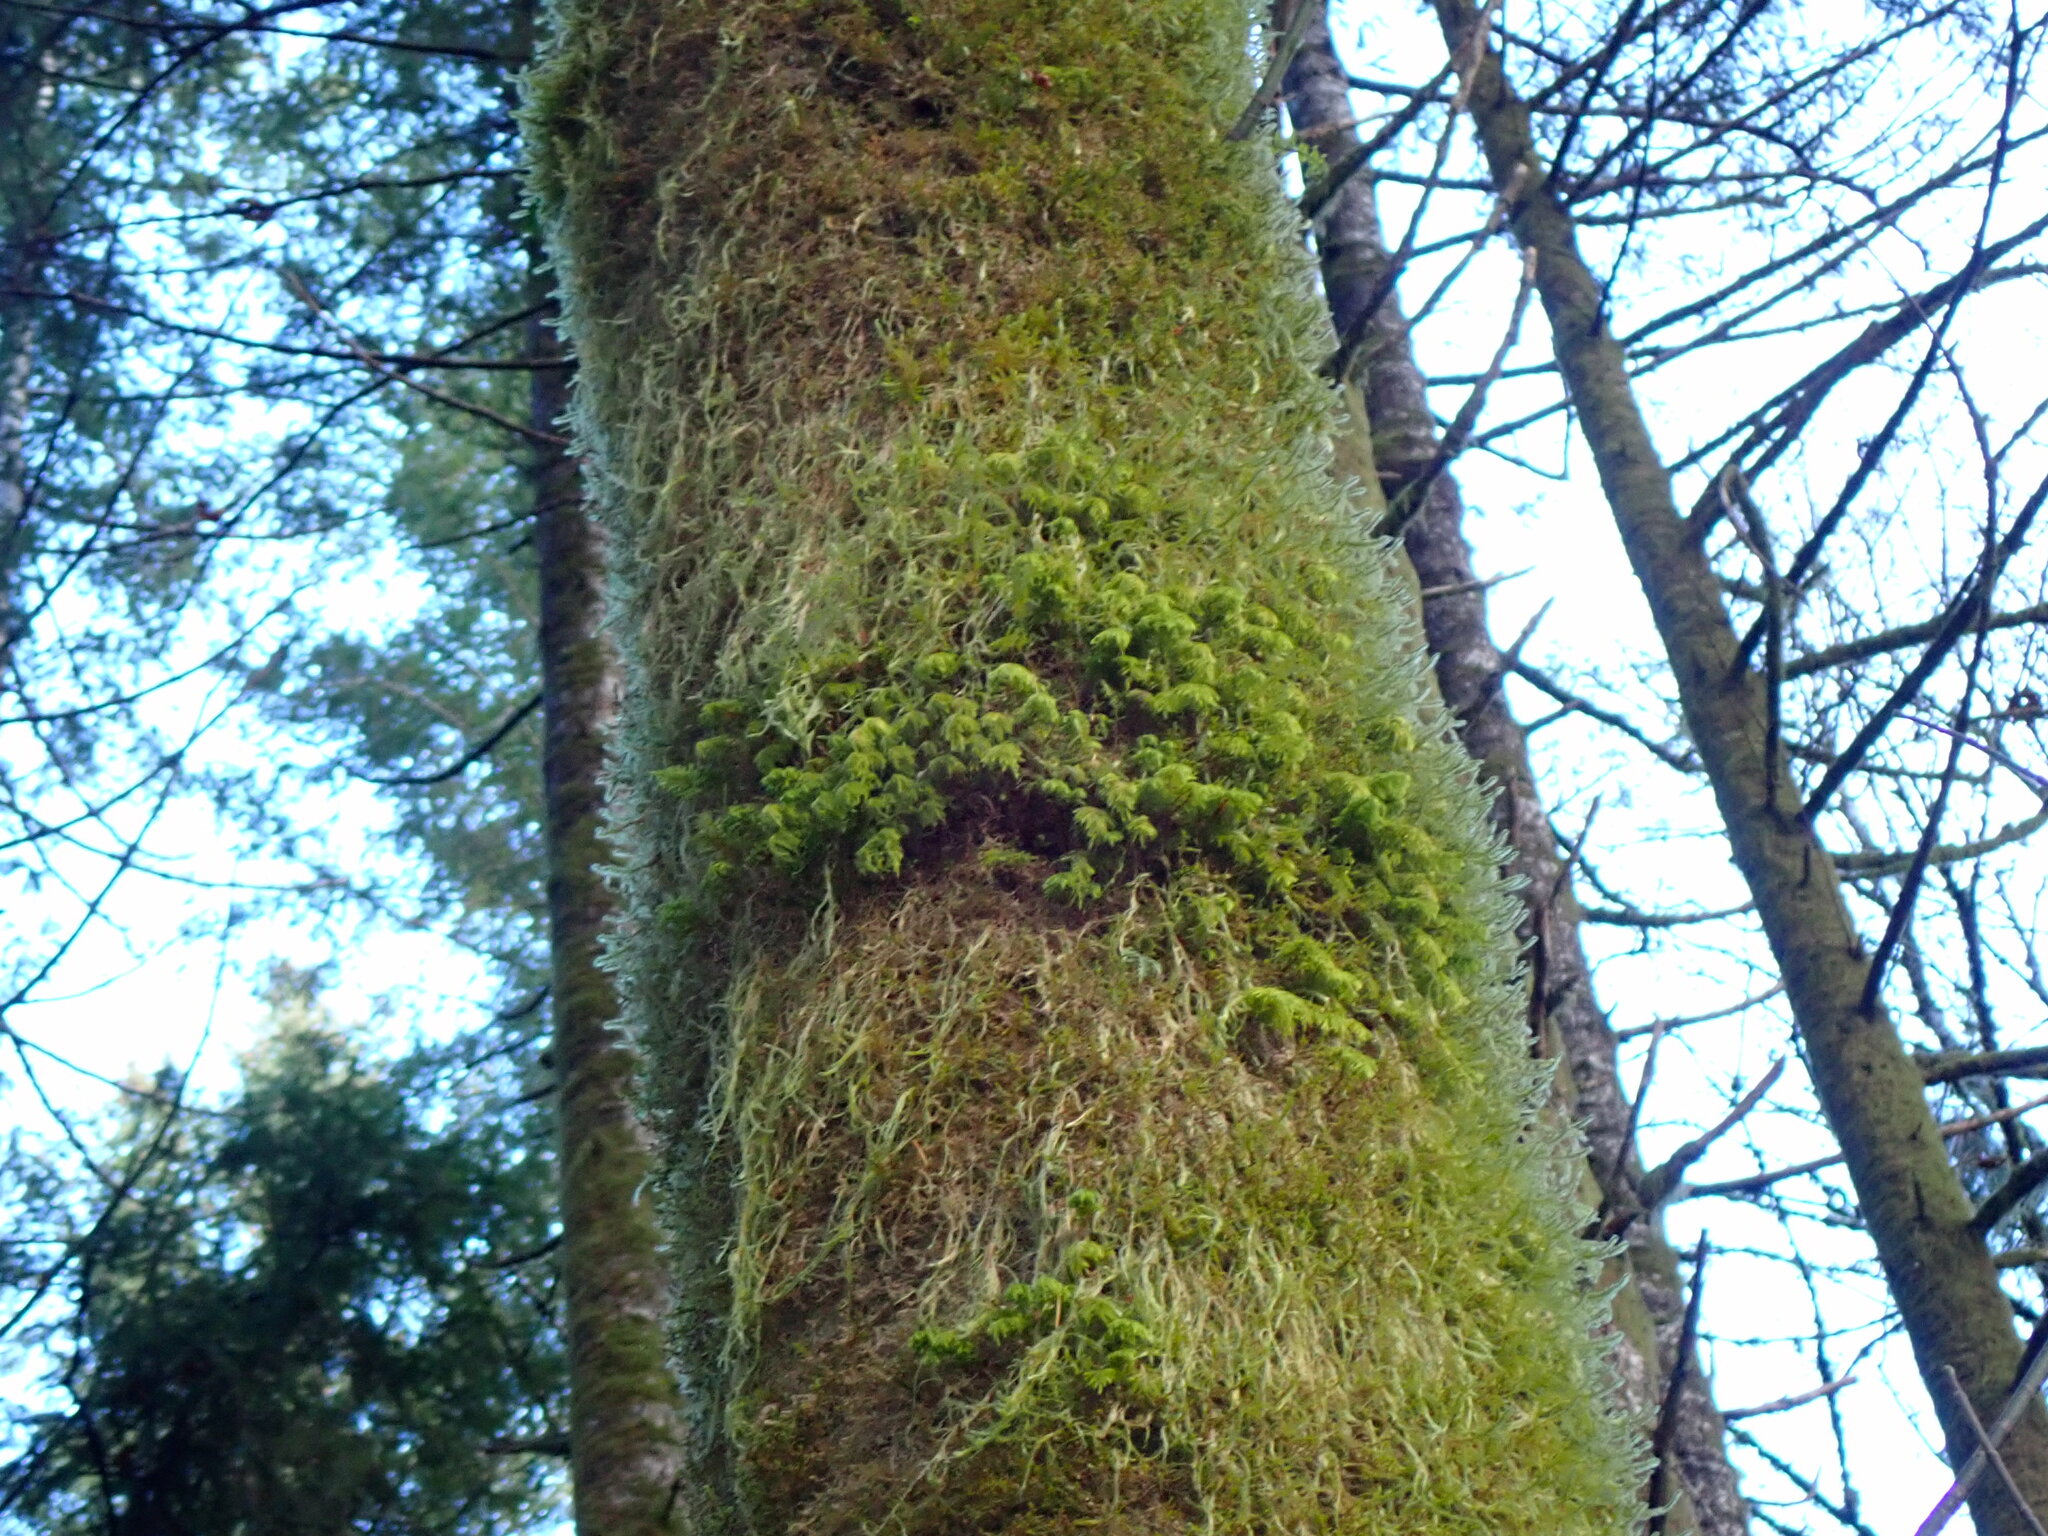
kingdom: Plantae
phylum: Bryophyta
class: Bryopsida
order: Hypnales
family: Cryphaeaceae
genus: Dendroalsia
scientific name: Dendroalsia abietina
